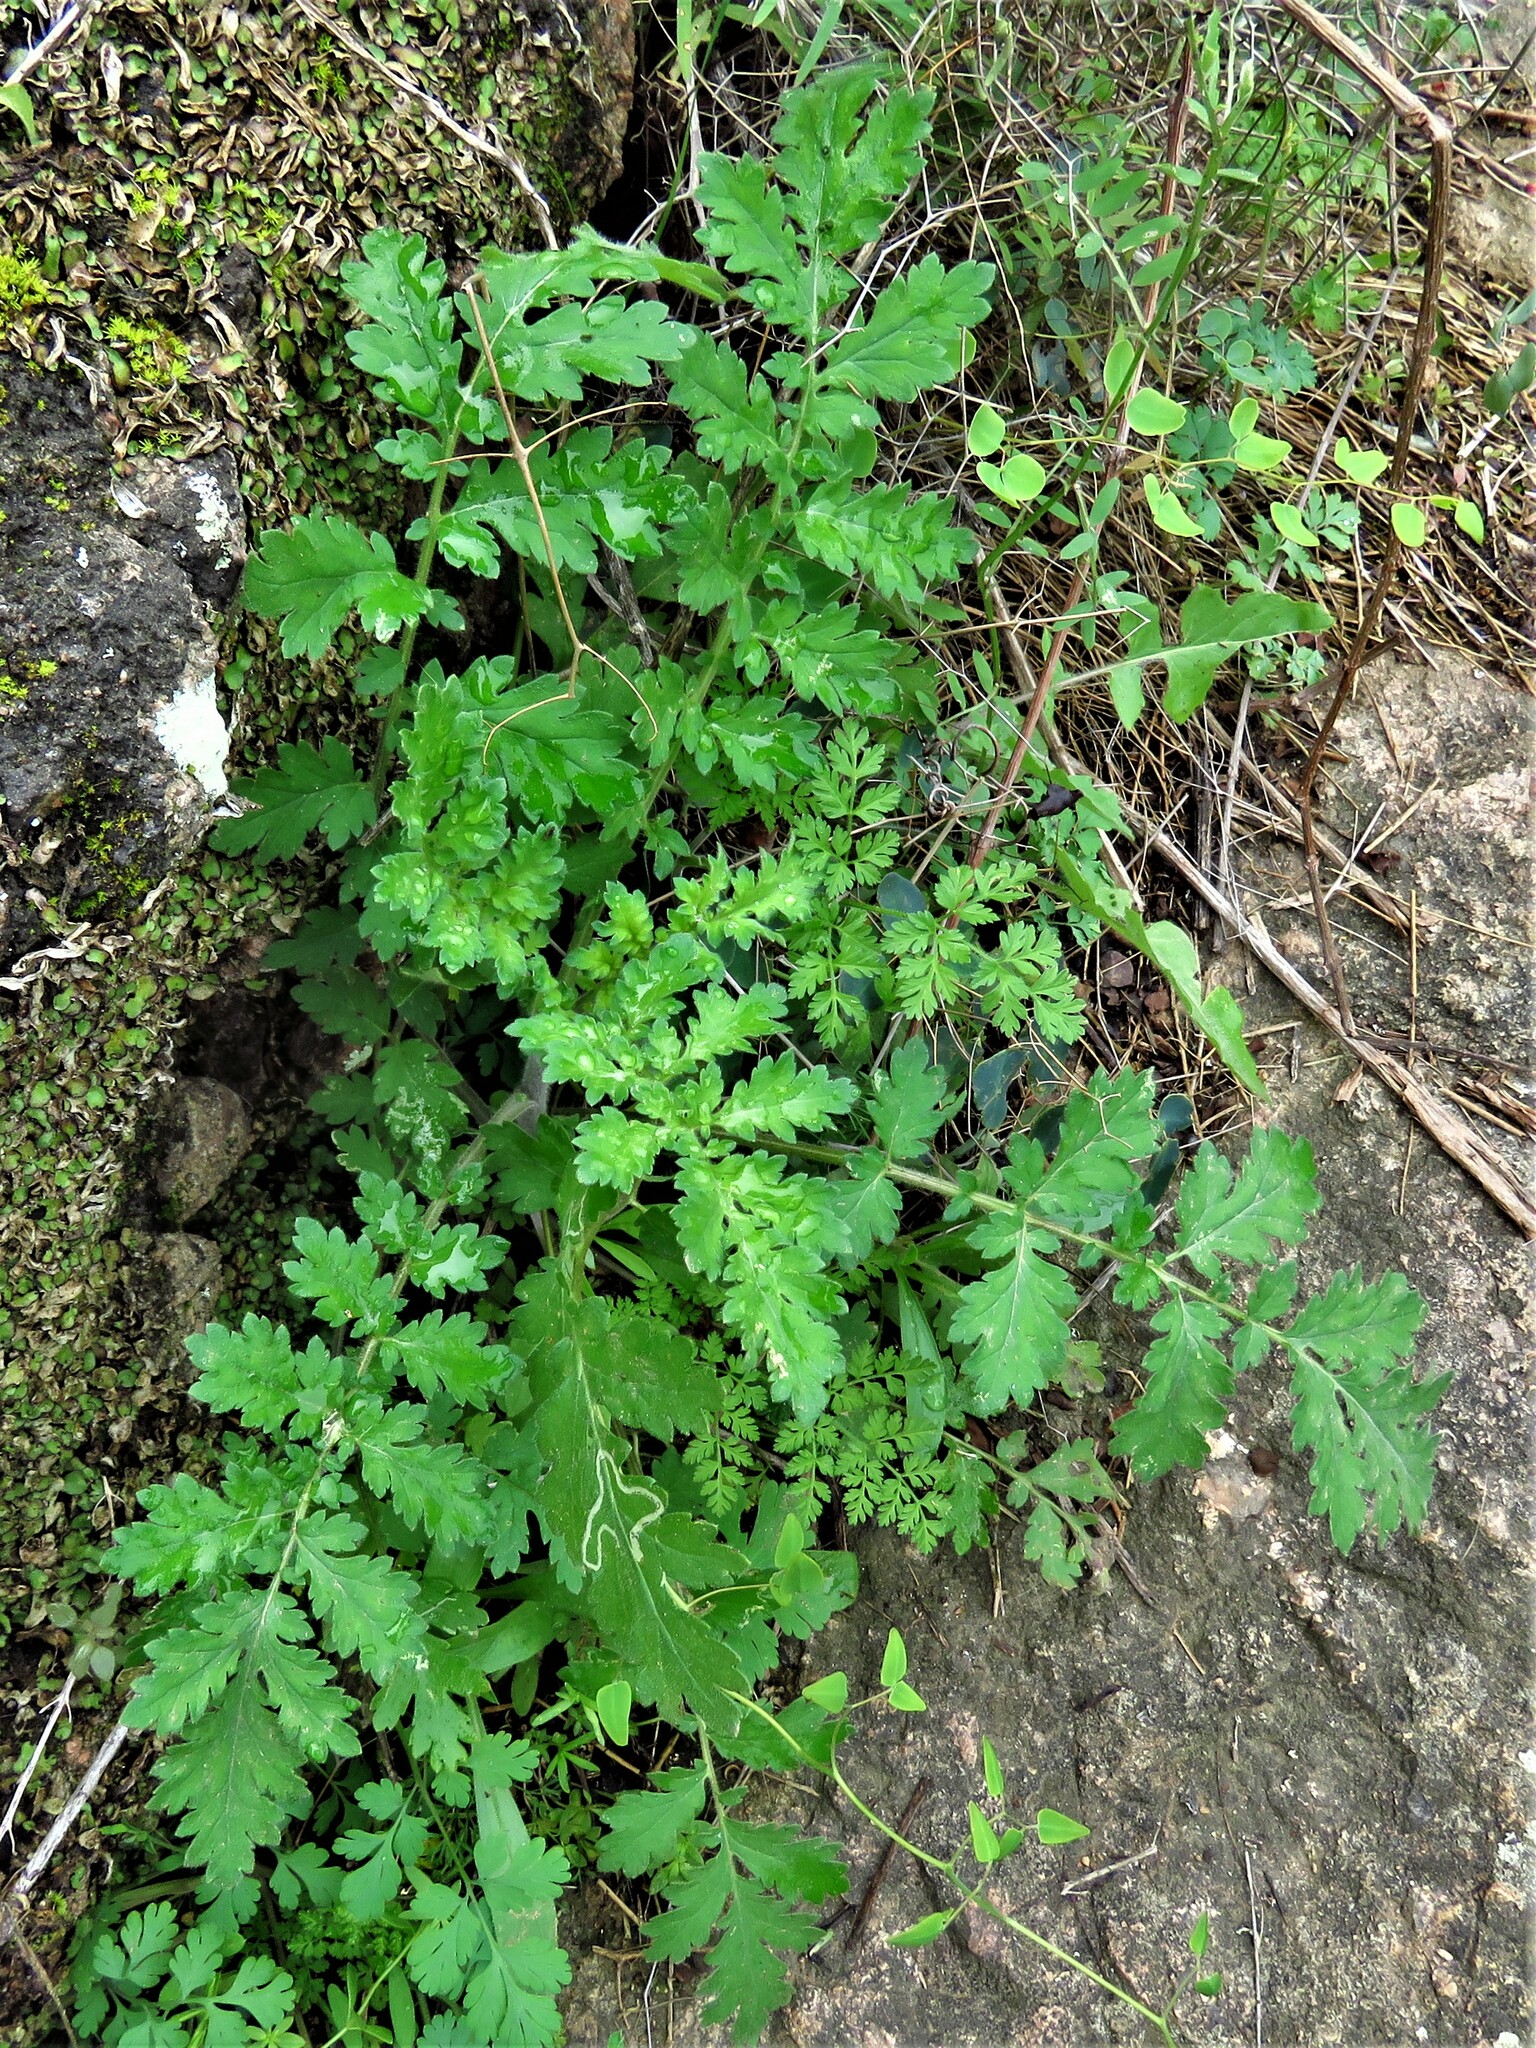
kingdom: Plantae
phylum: Tracheophyta
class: Magnoliopsida
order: Boraginales
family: Hydrophyllaceae
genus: Phacelia
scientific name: Phacelia congesta
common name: Blue curls
